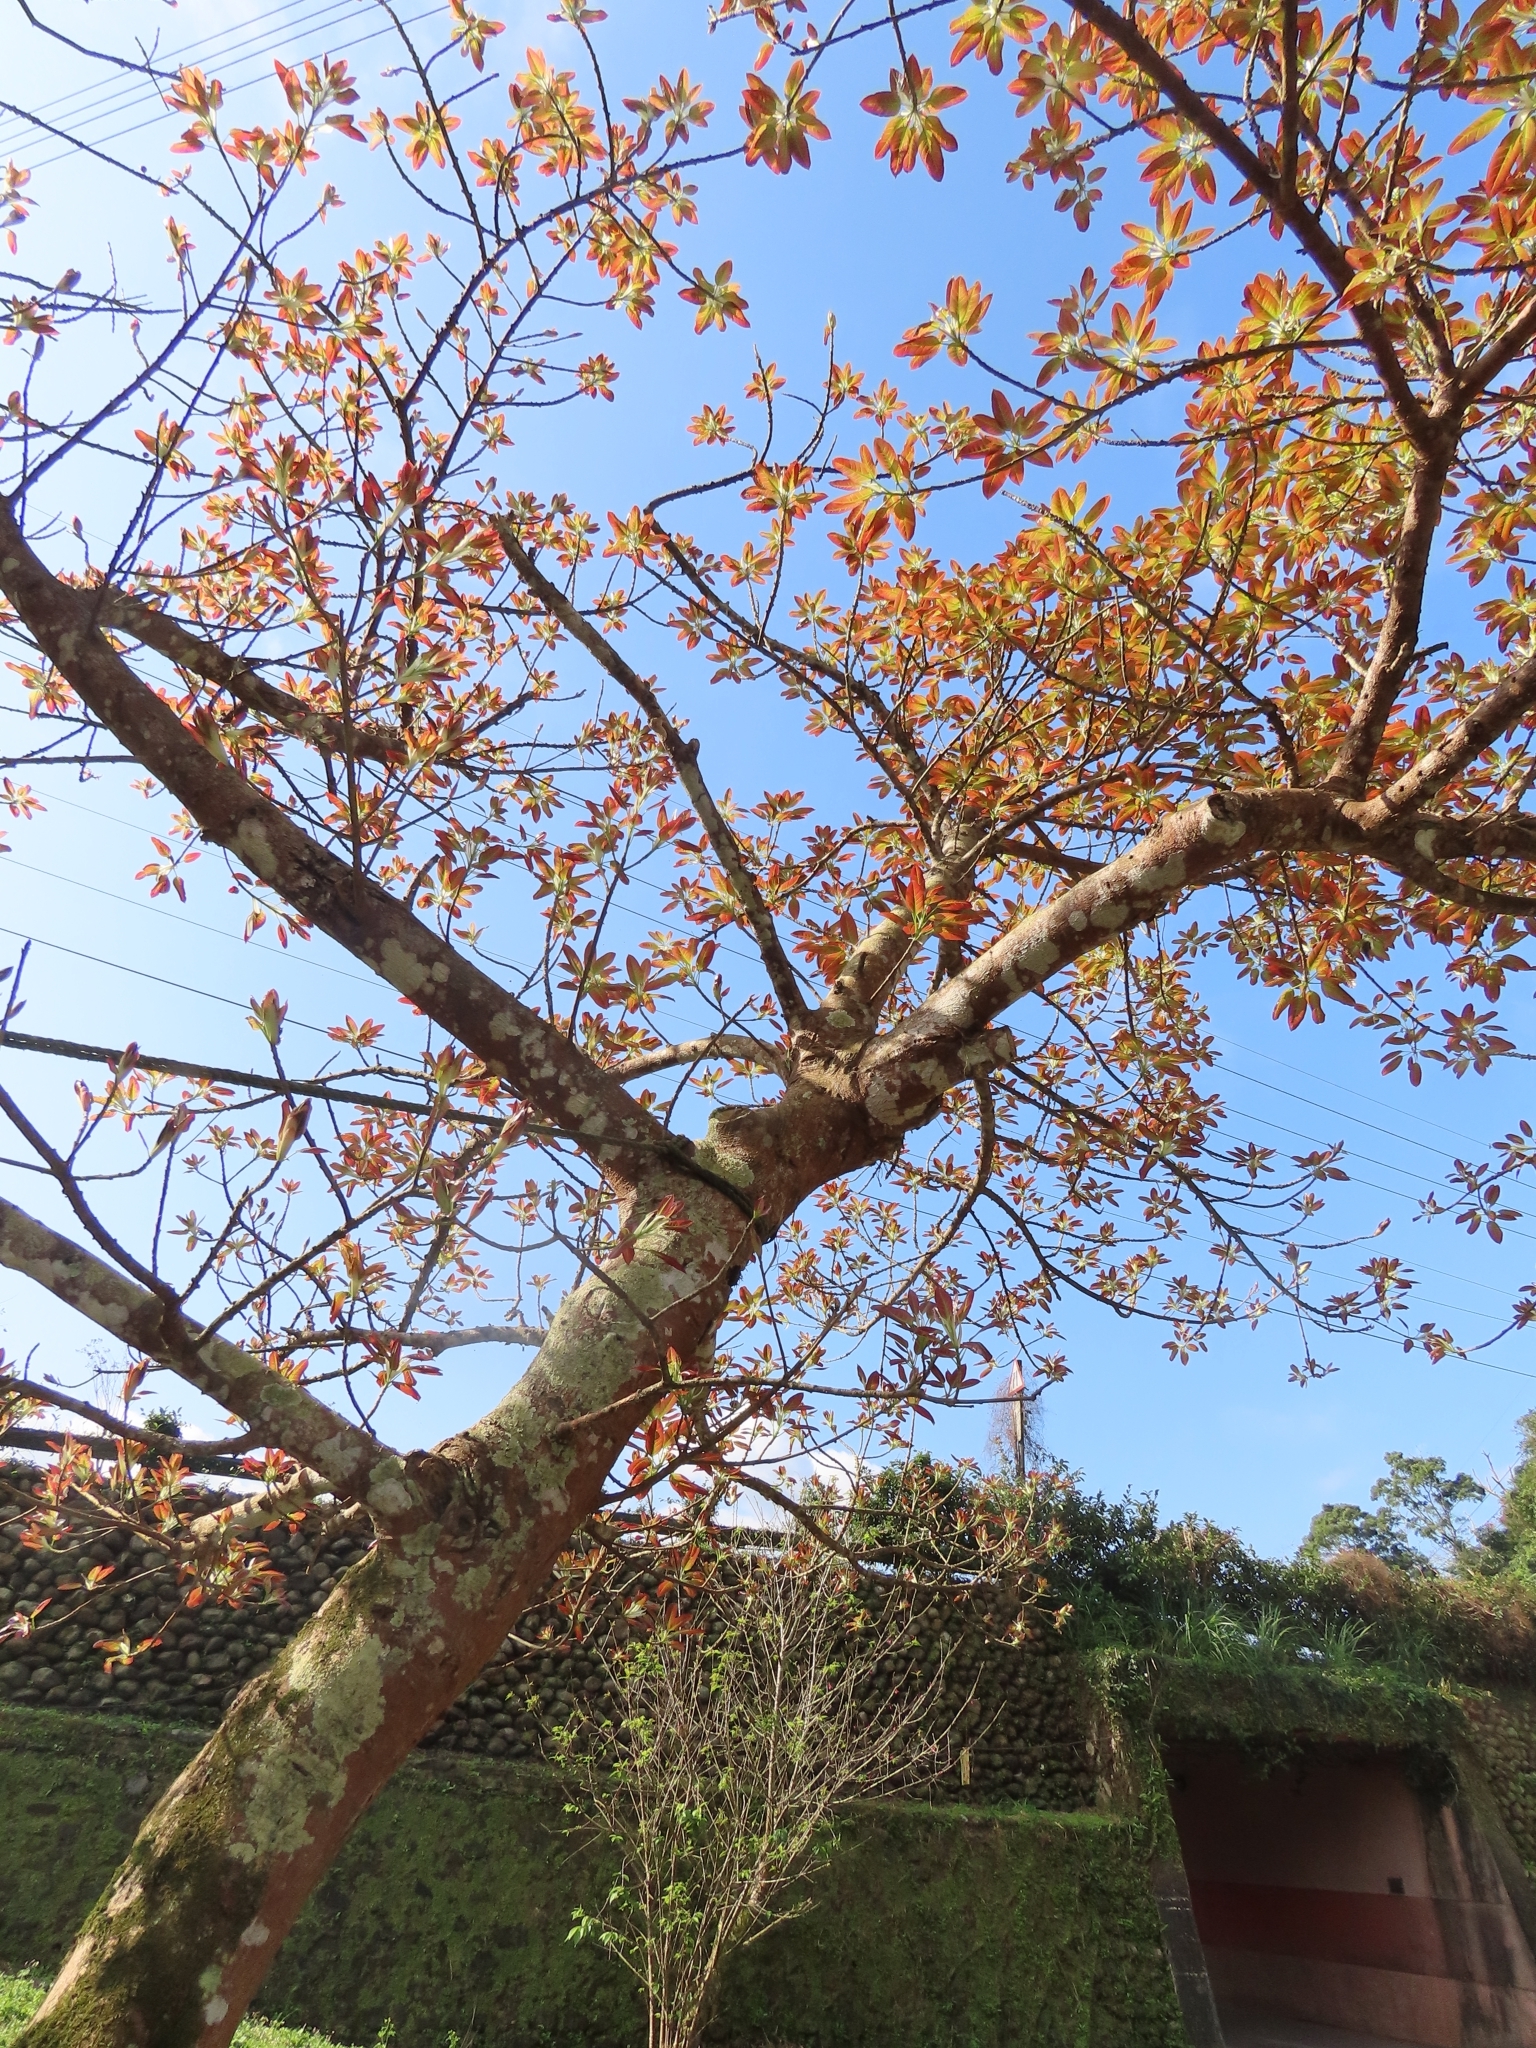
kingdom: Plantae
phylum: Tracheophyta
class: Magnoliopsida
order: Rosales
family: Moraceae
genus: Ficus
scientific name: Ficus subpisocarpa
